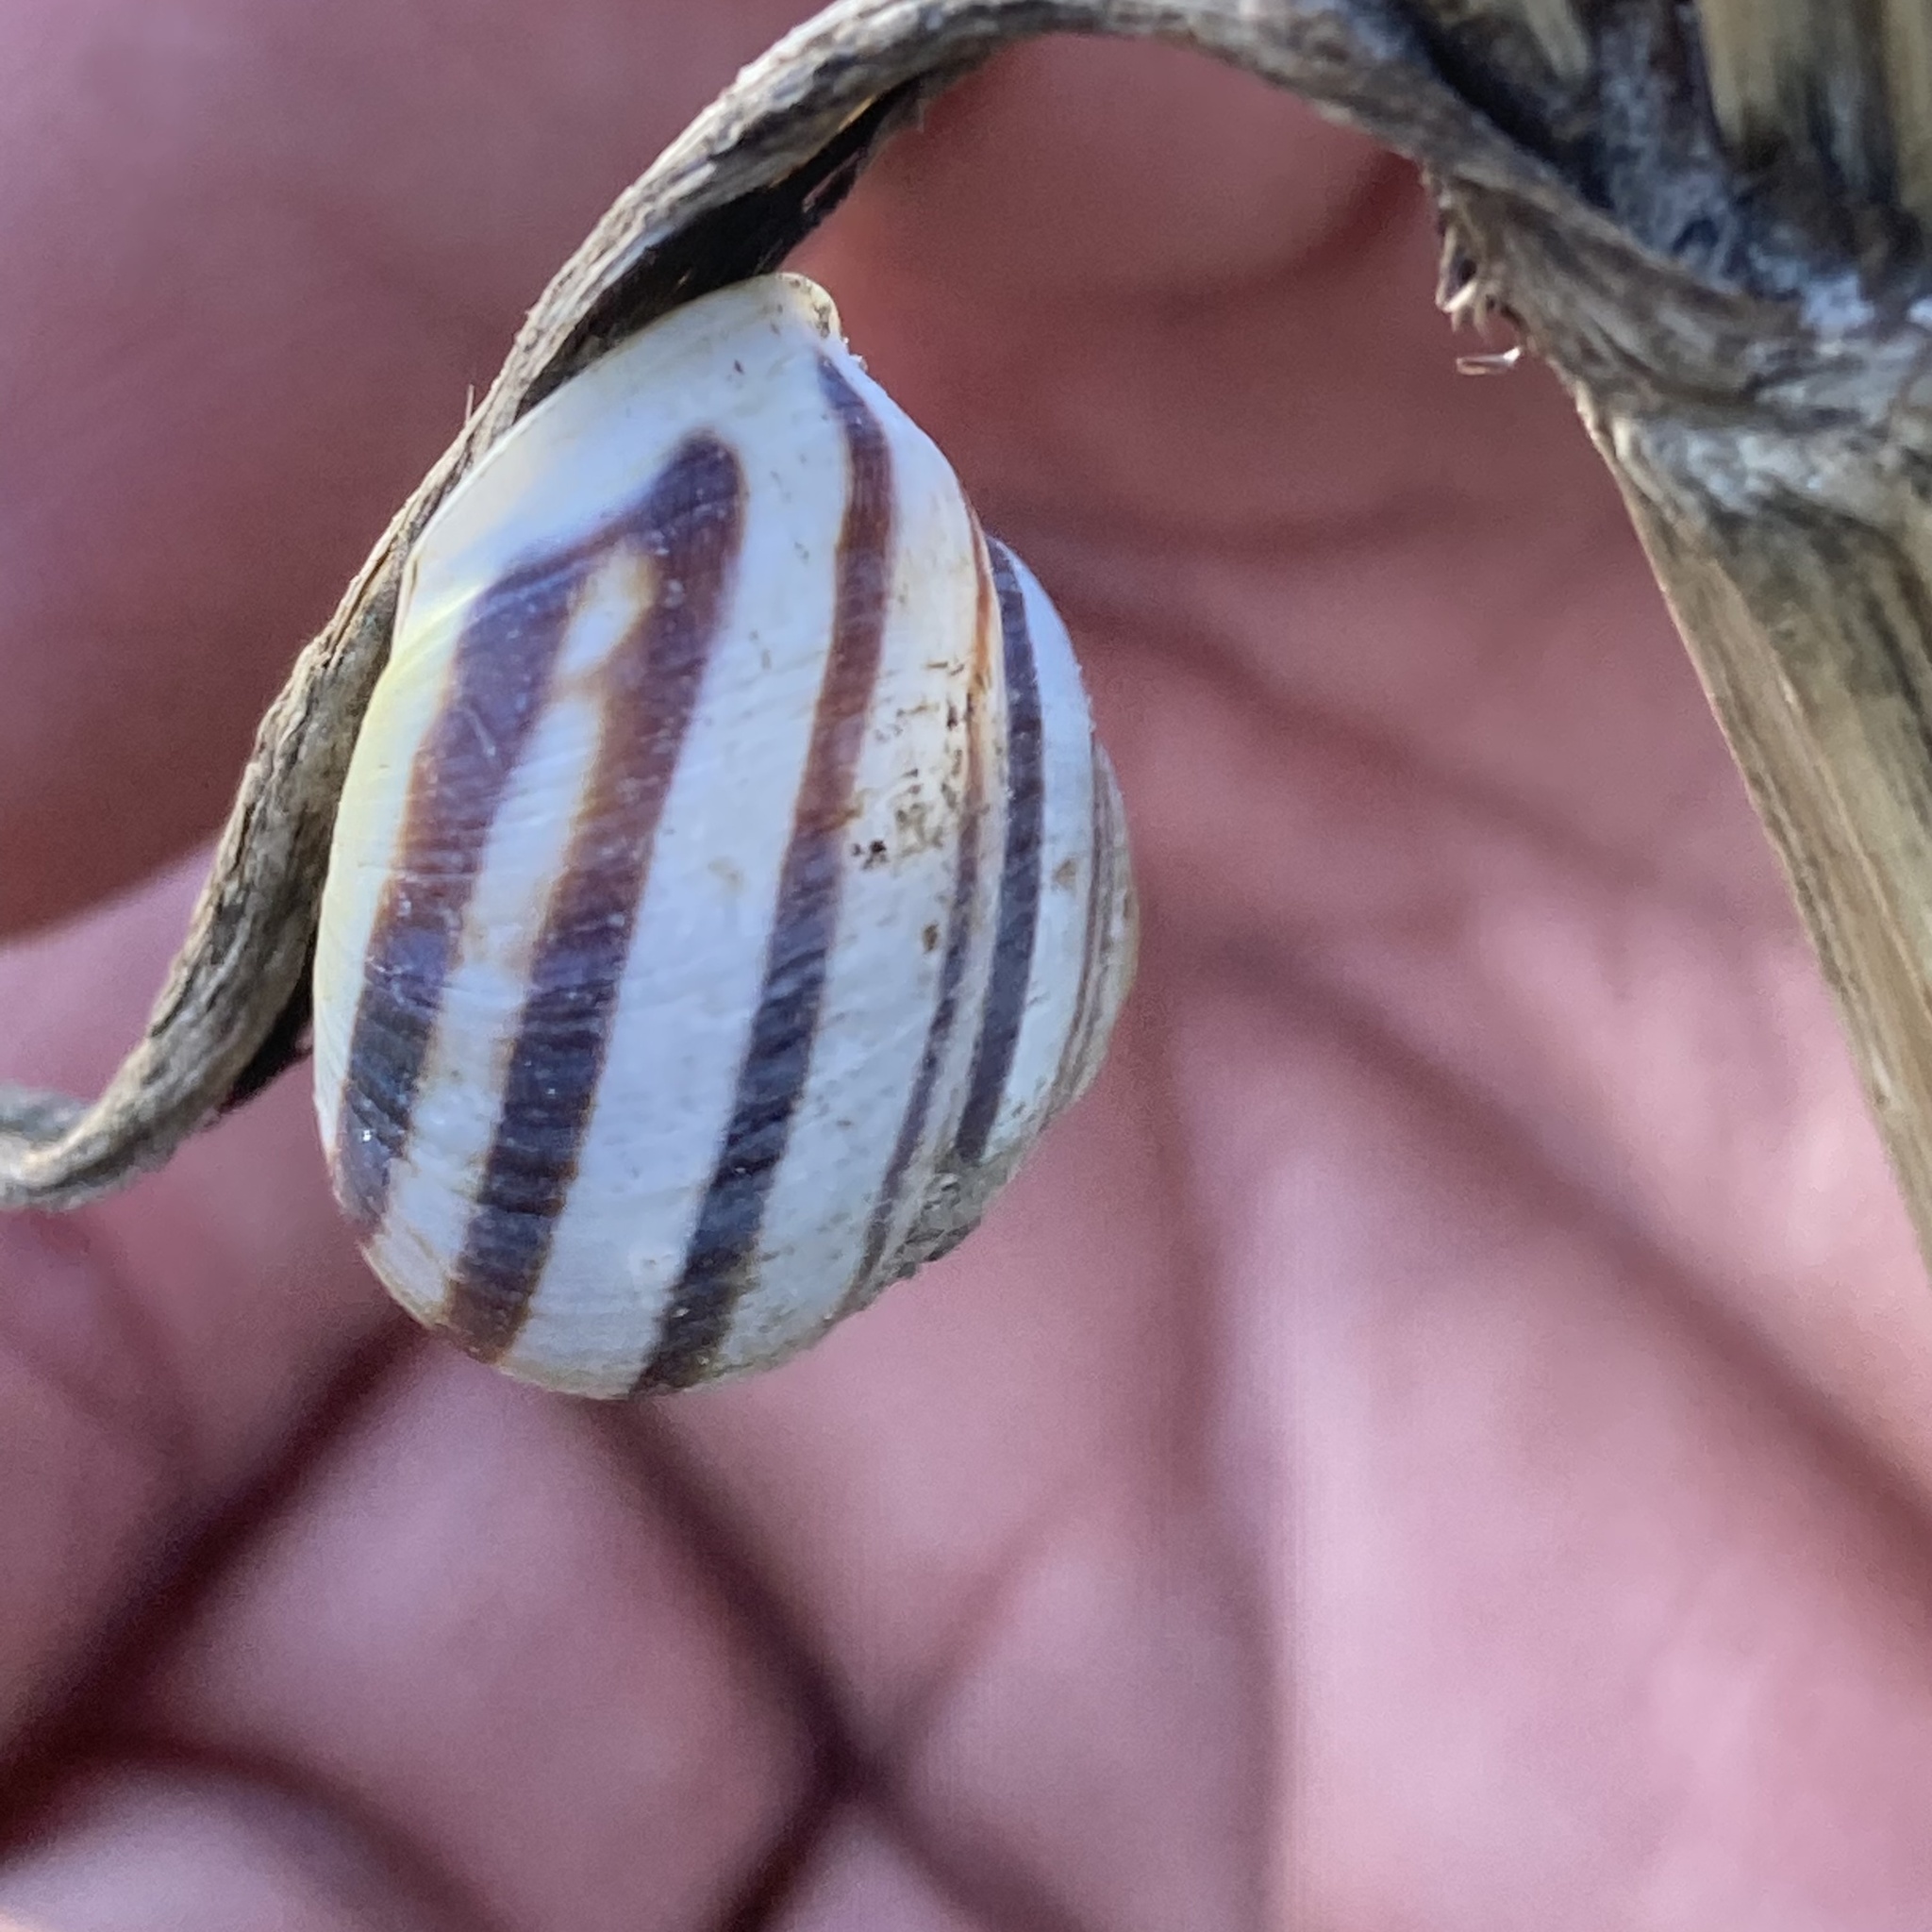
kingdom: Animalia
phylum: Mollusca
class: Gastropoda
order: Stylommatophora
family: Helicidae
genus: Cepaea
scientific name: Cepaea hortensis
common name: White-lip gardensnail
